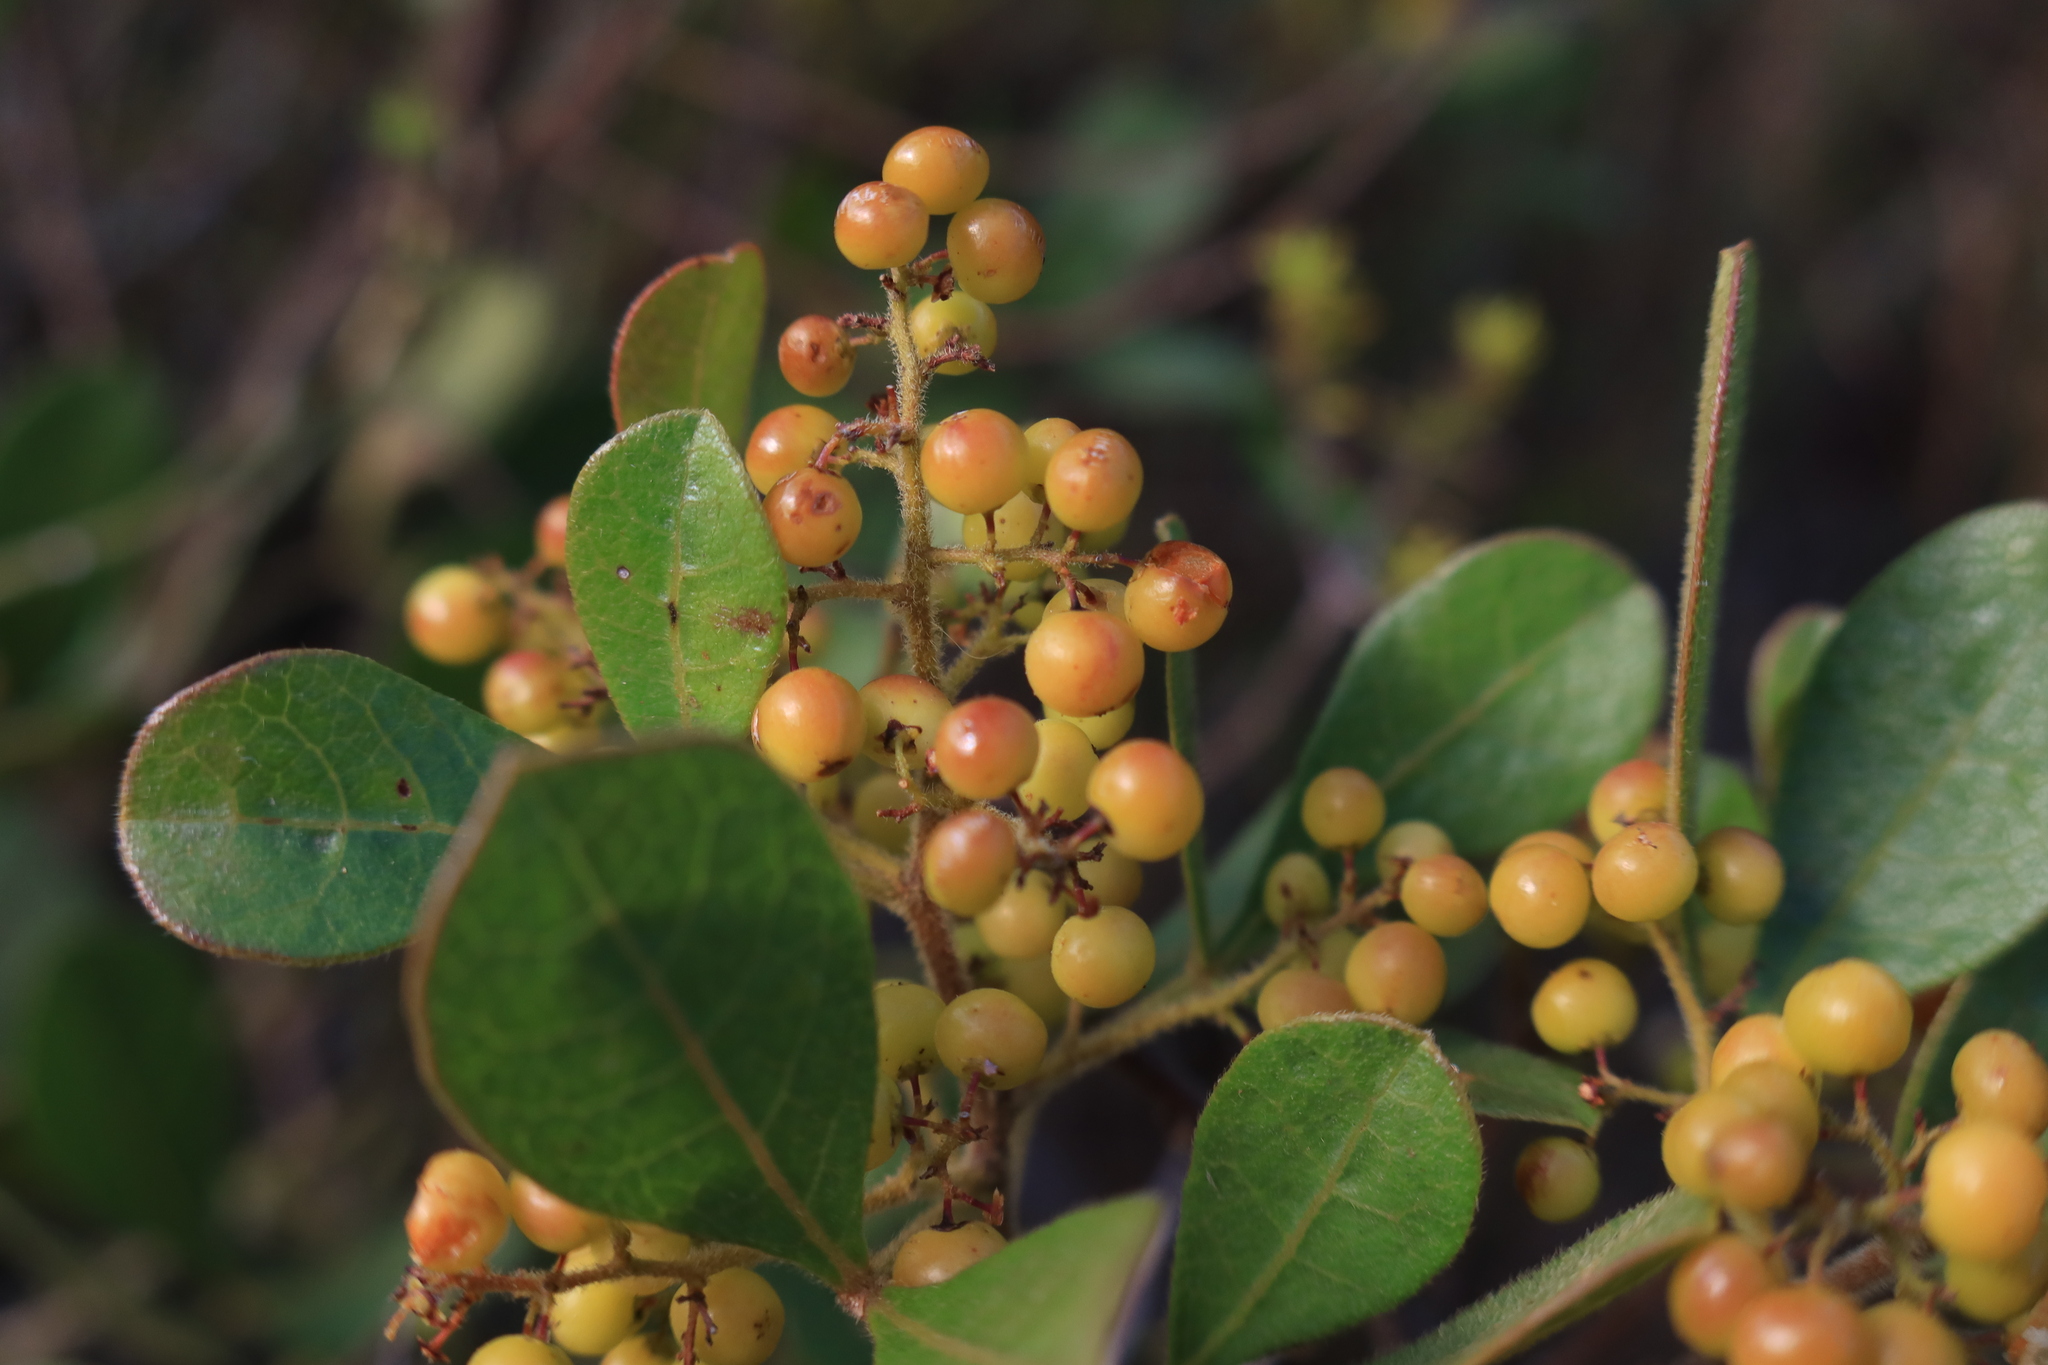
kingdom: Plantae
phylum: Tracheophyta
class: Magnoliopsida
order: Sapindales
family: Anacardiaceae
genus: Searsia
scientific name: Searsia laevigata
